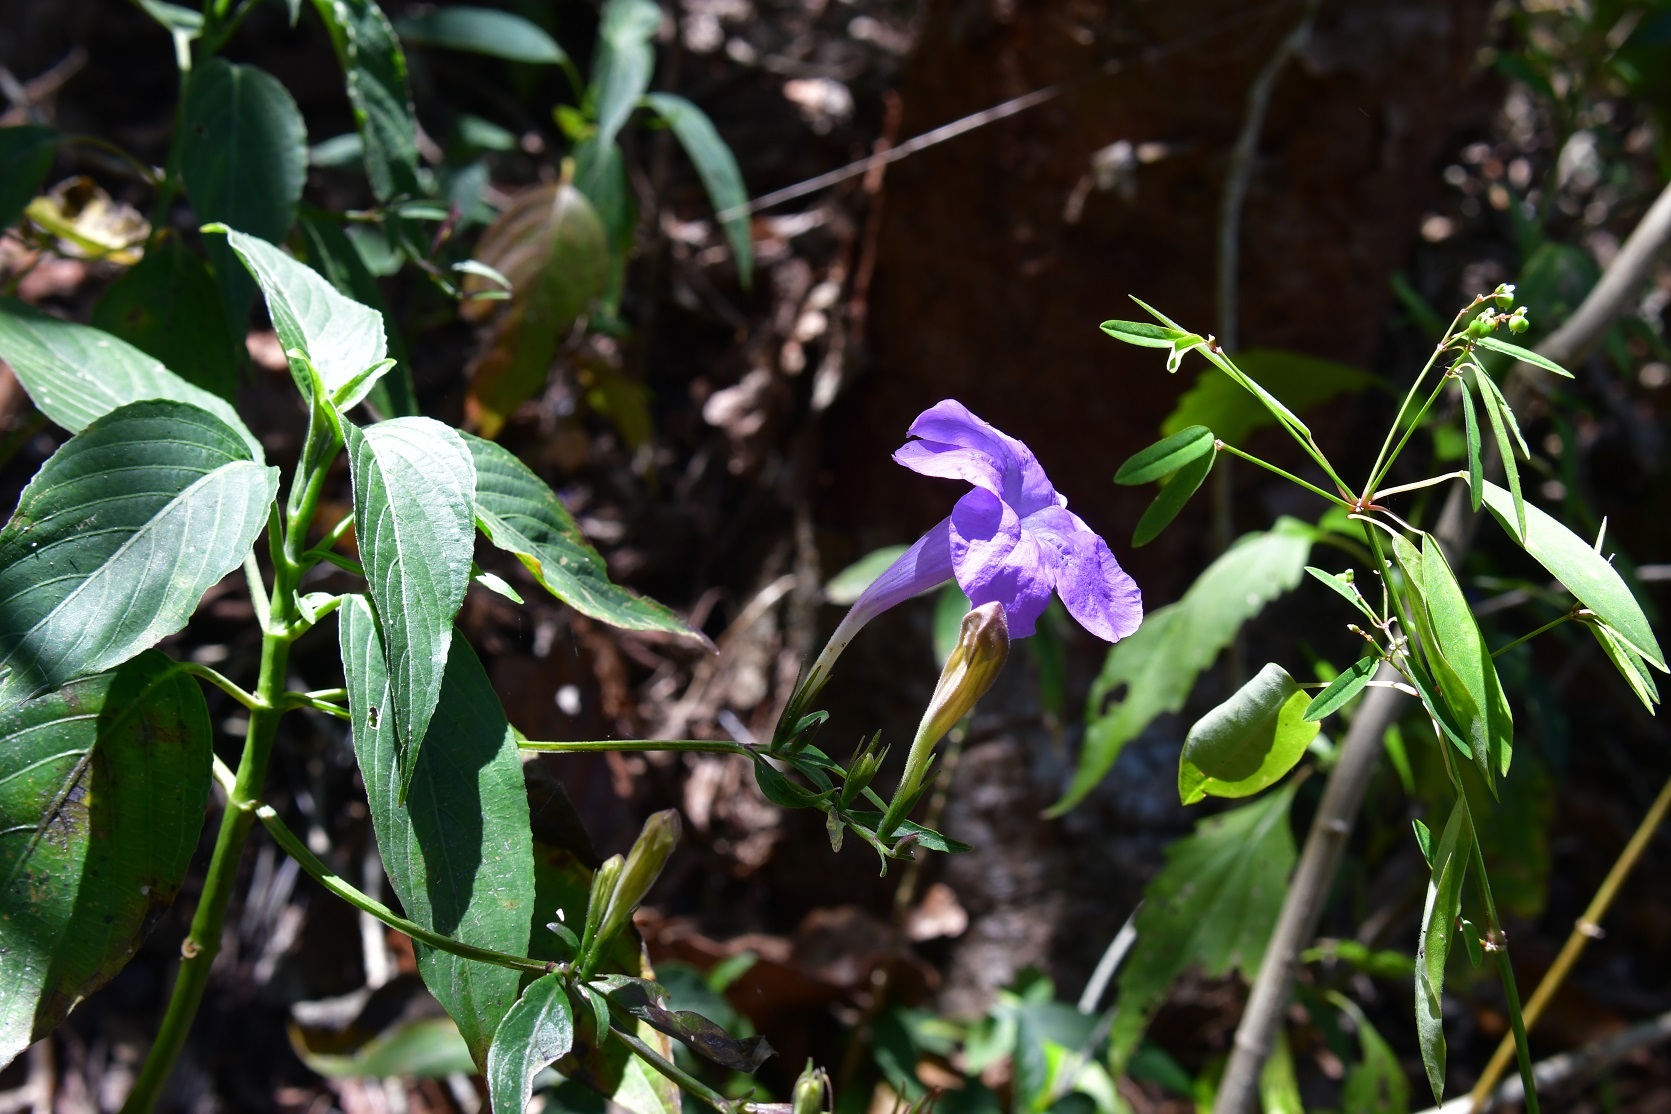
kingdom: Plantae
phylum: Tracheophyta
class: Magnoliopsida
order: Lamiales
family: Acanthaceae
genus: Ruellia
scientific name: Ruellia breedlovei
